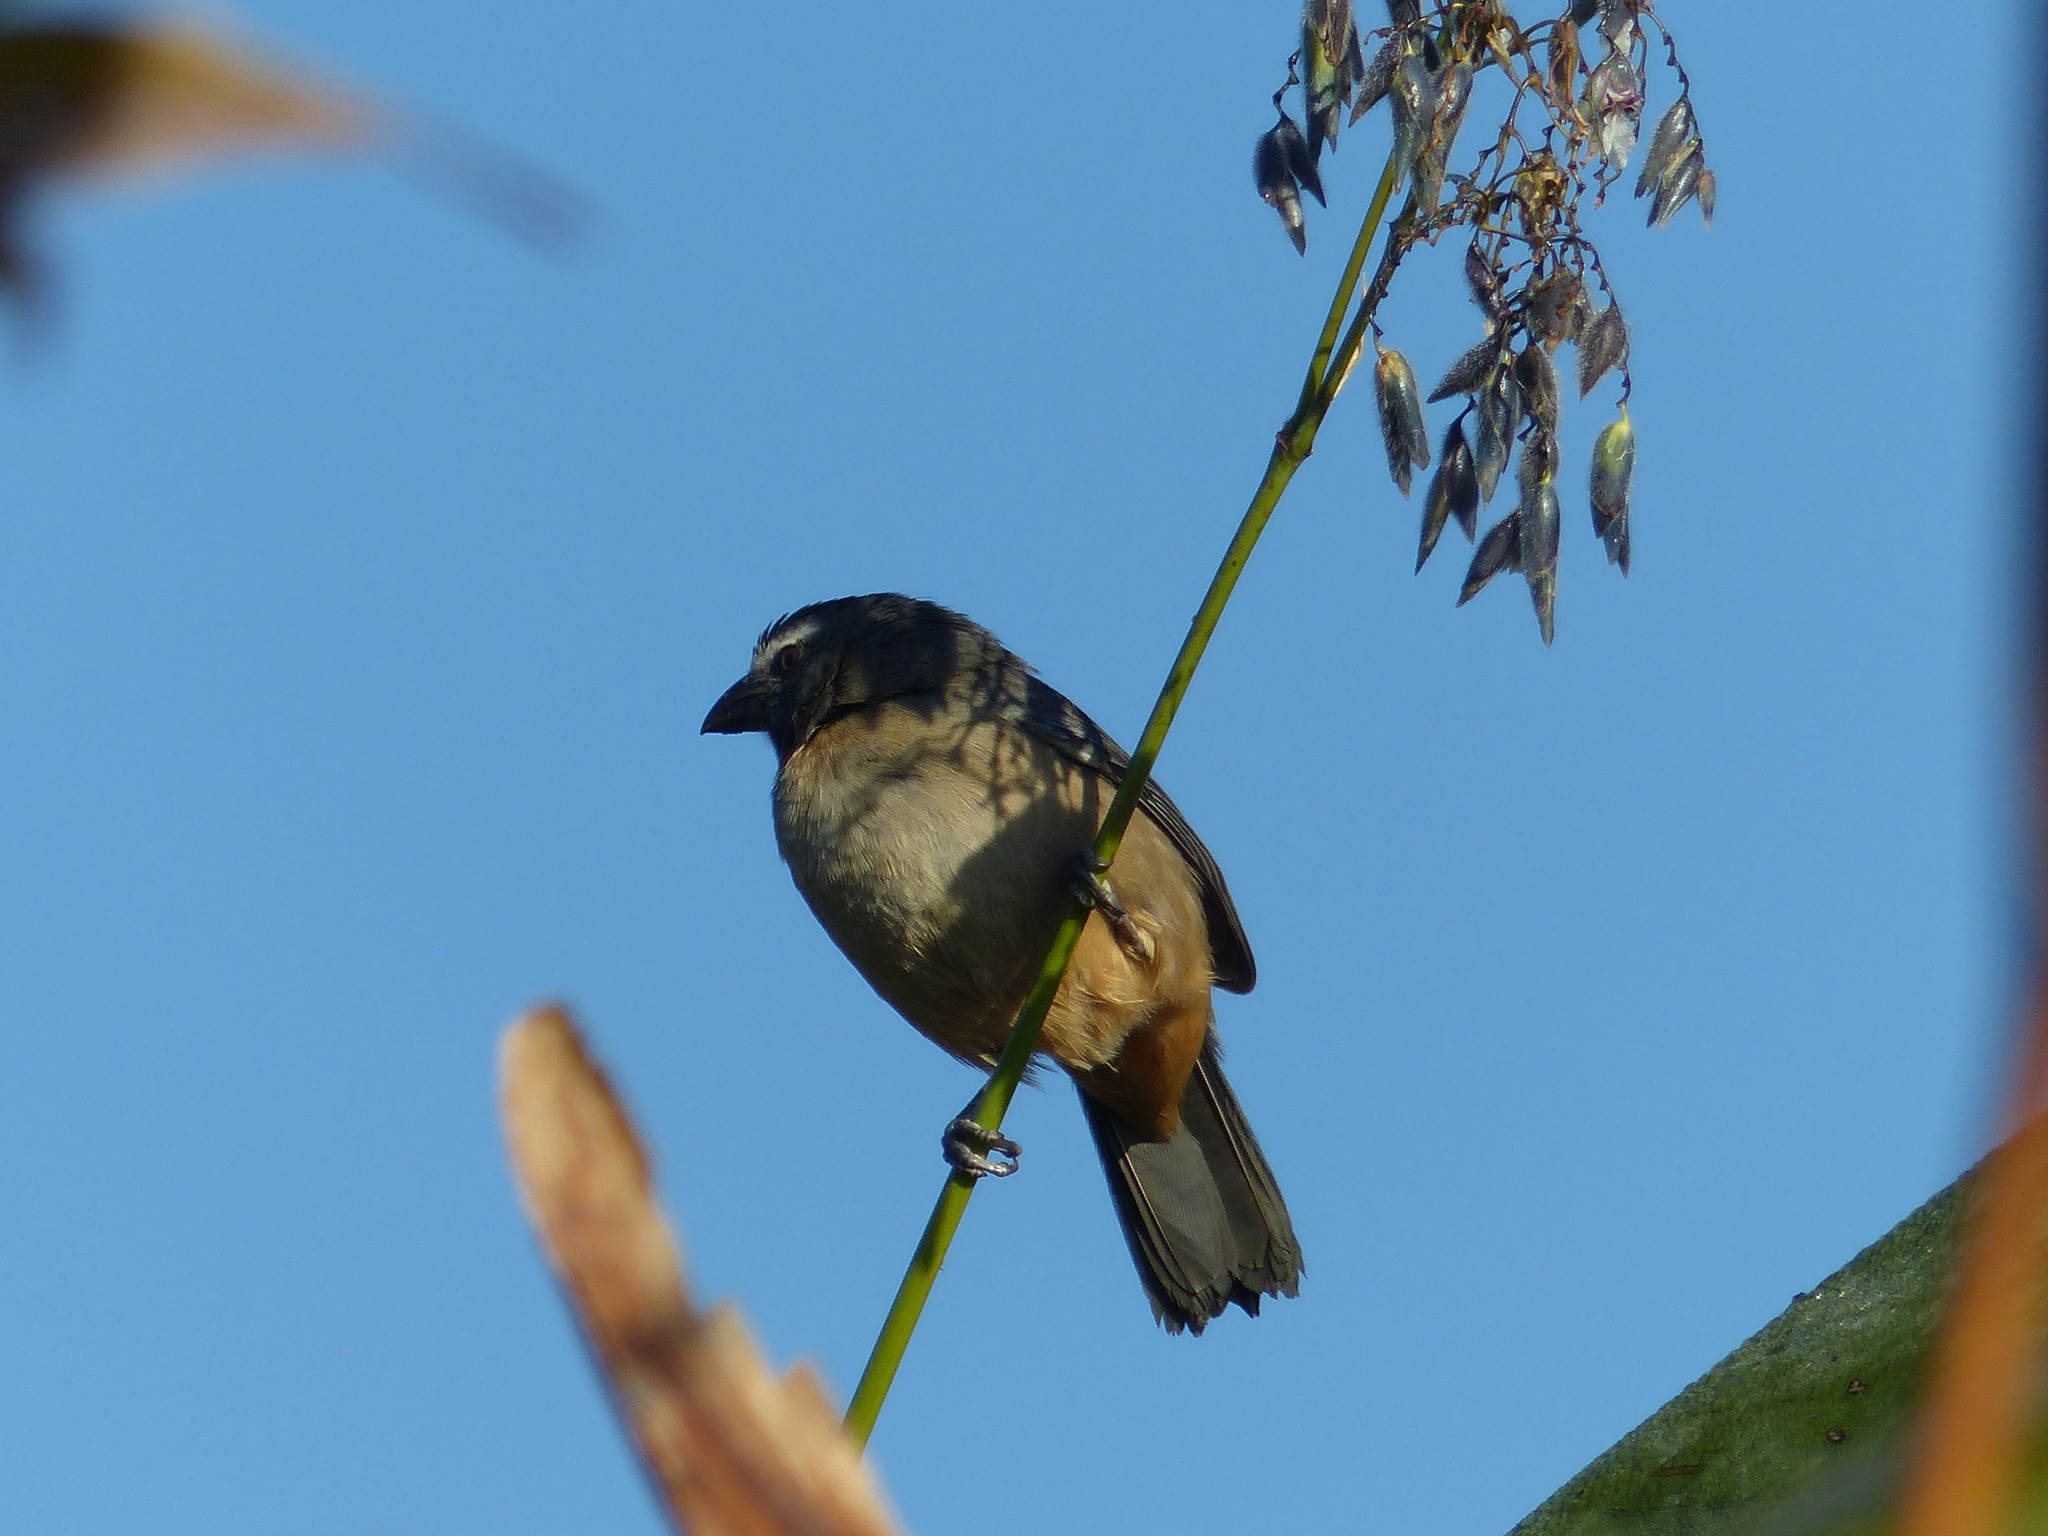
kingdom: Animalia
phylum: Chordata
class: Aves
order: Passeriformes
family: Thraupidae
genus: Saltator
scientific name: Saltator coerulescens
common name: Grayish saltator
